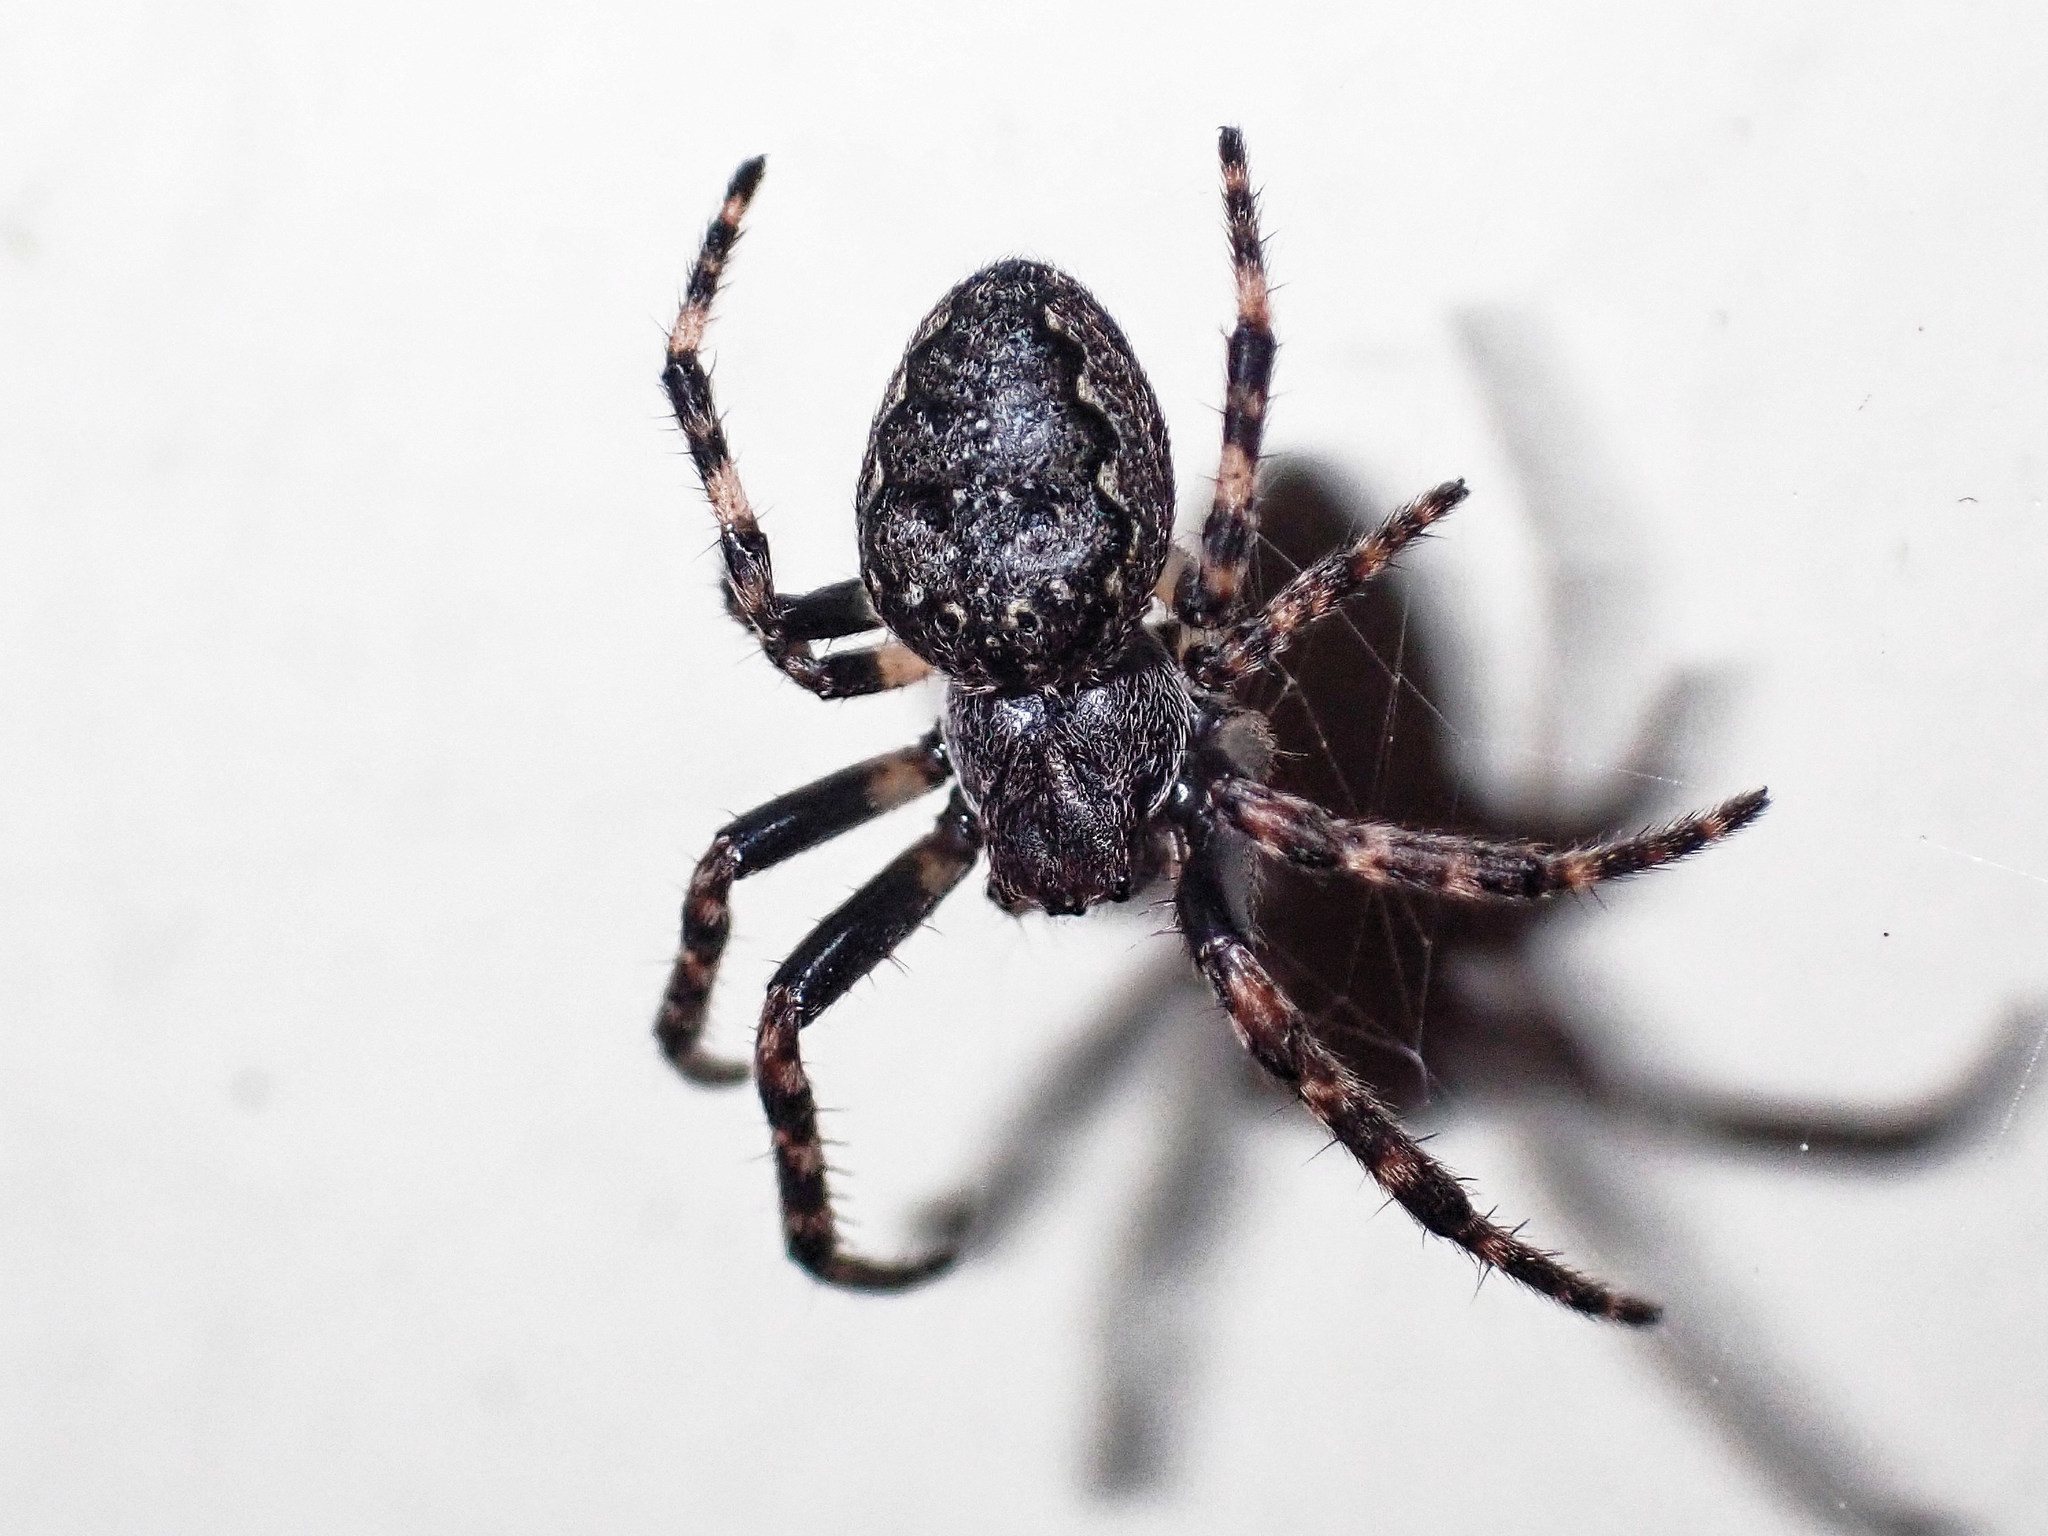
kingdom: Animalia
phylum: Arthropoda
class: Arachnida
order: Araneae
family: Araneidae
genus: Nuctenea
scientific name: Nuctenea umbratica
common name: Toad spider
